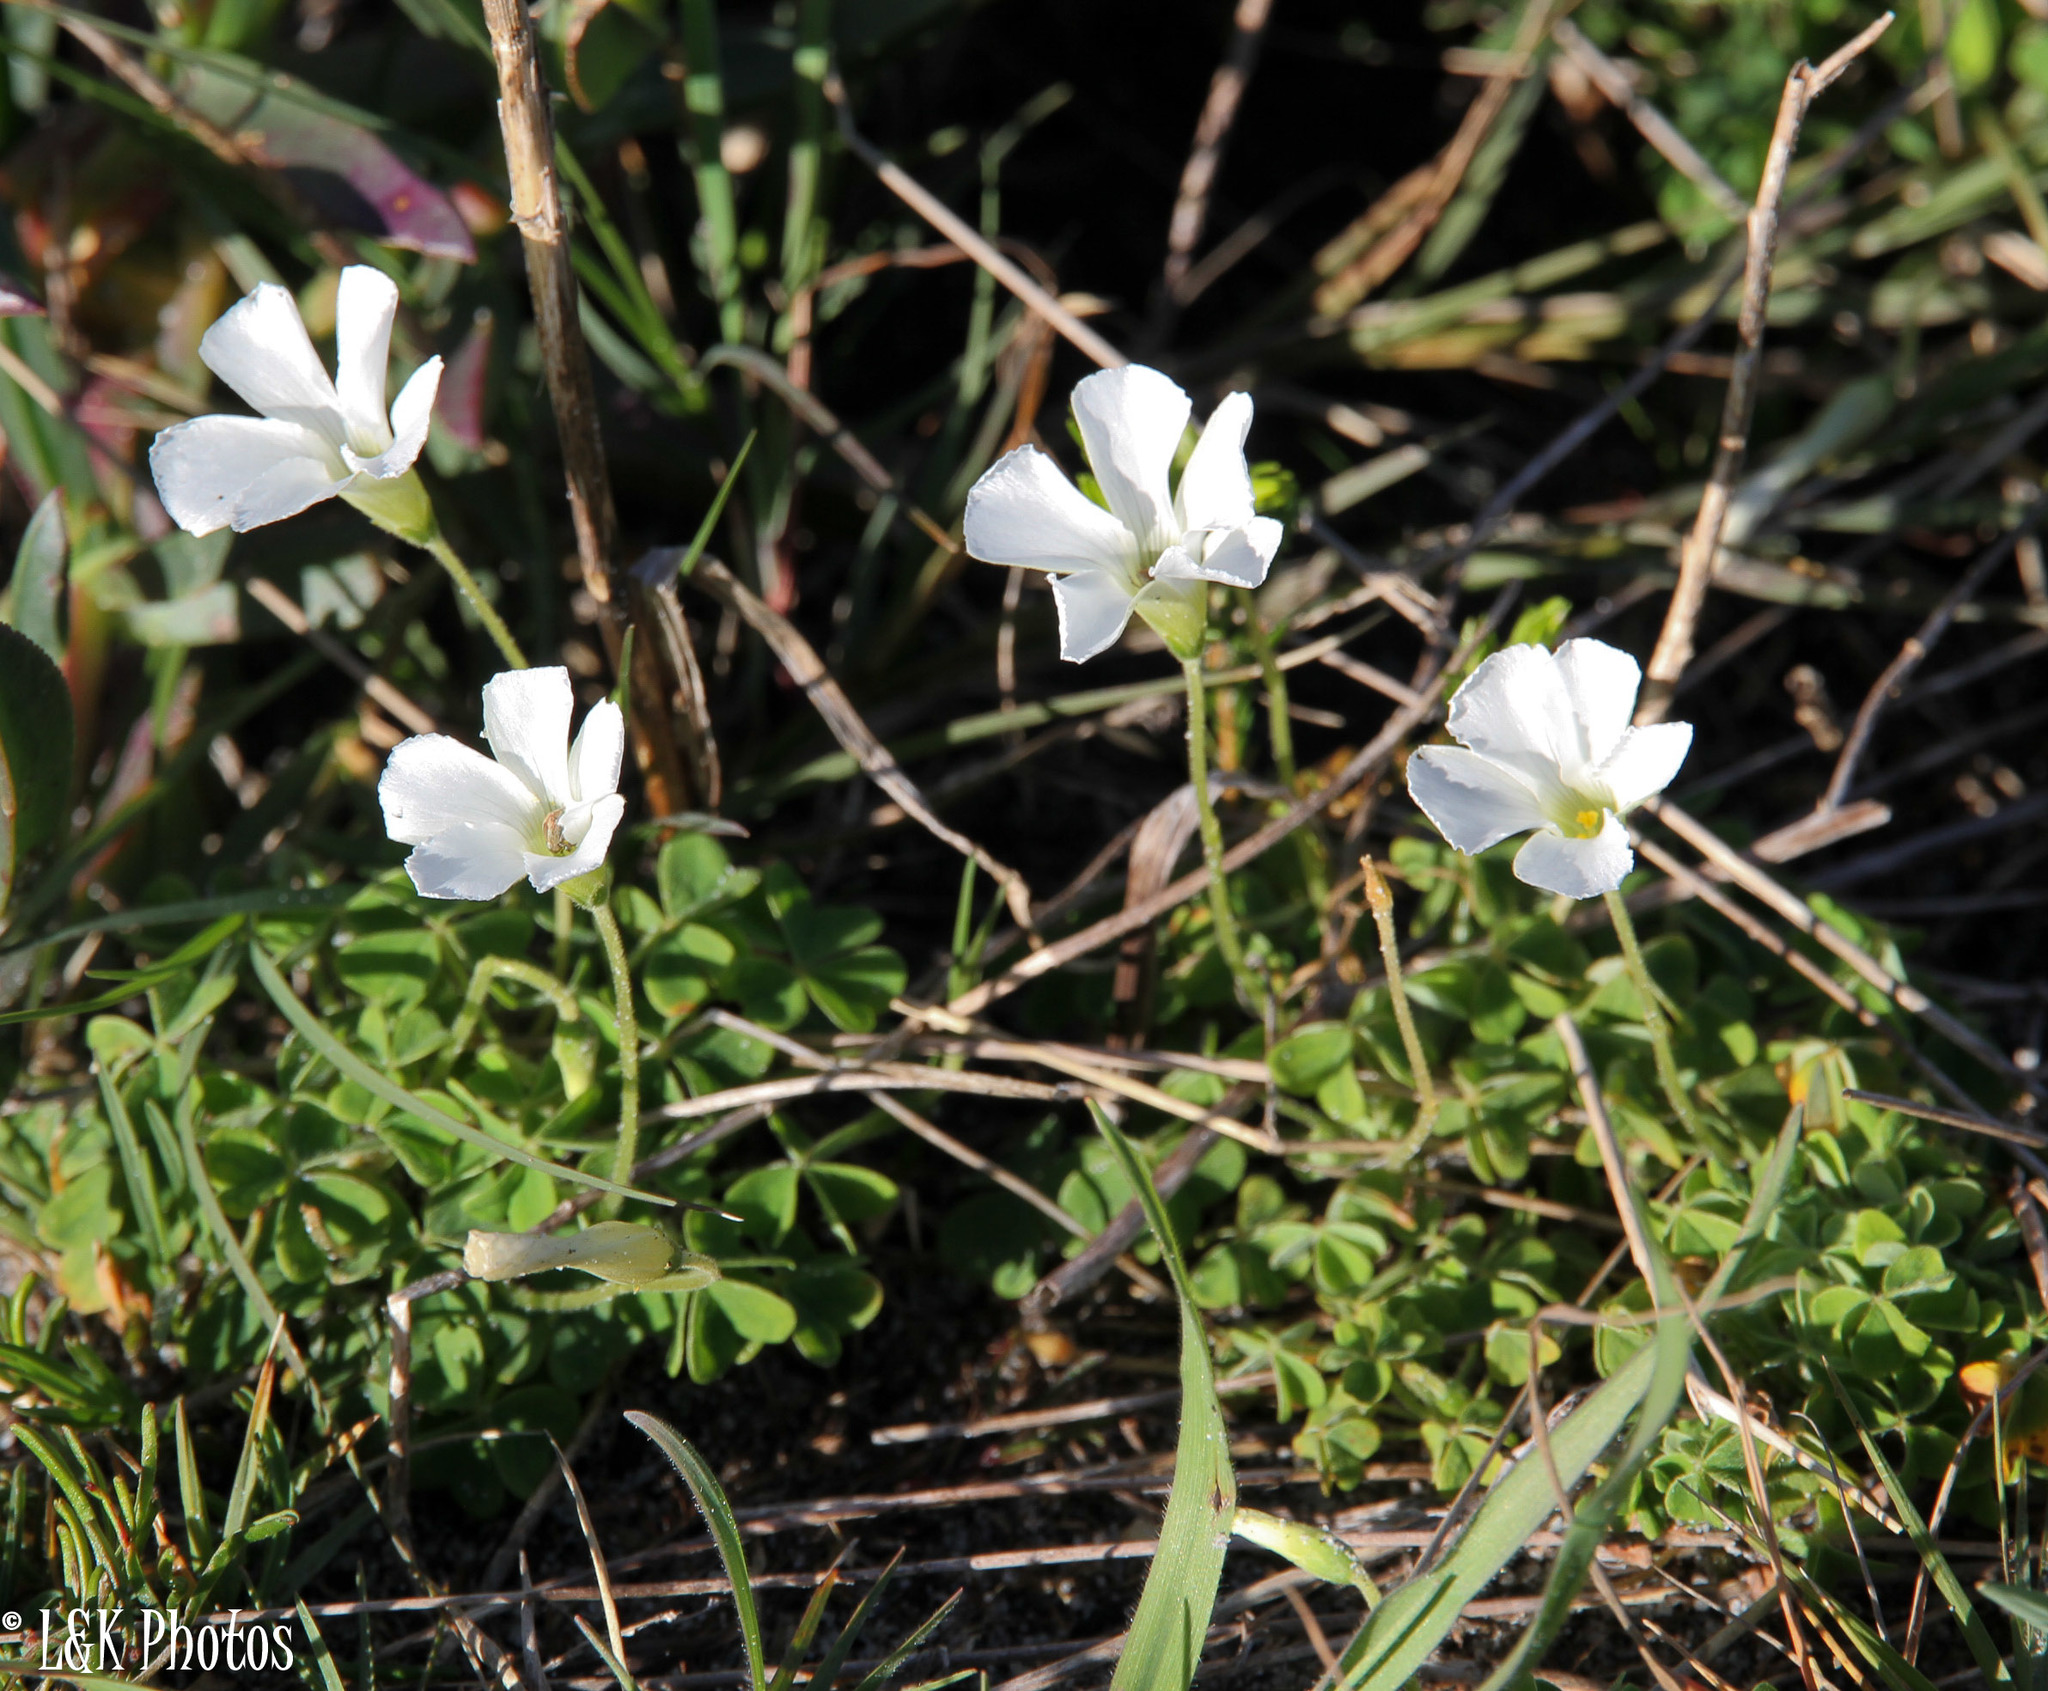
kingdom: Plantae
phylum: Tracheophyta
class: Magnoliopsida
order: Oxalidales
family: Oxalidaceae
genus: Oxalis
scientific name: Oxalis lanata
